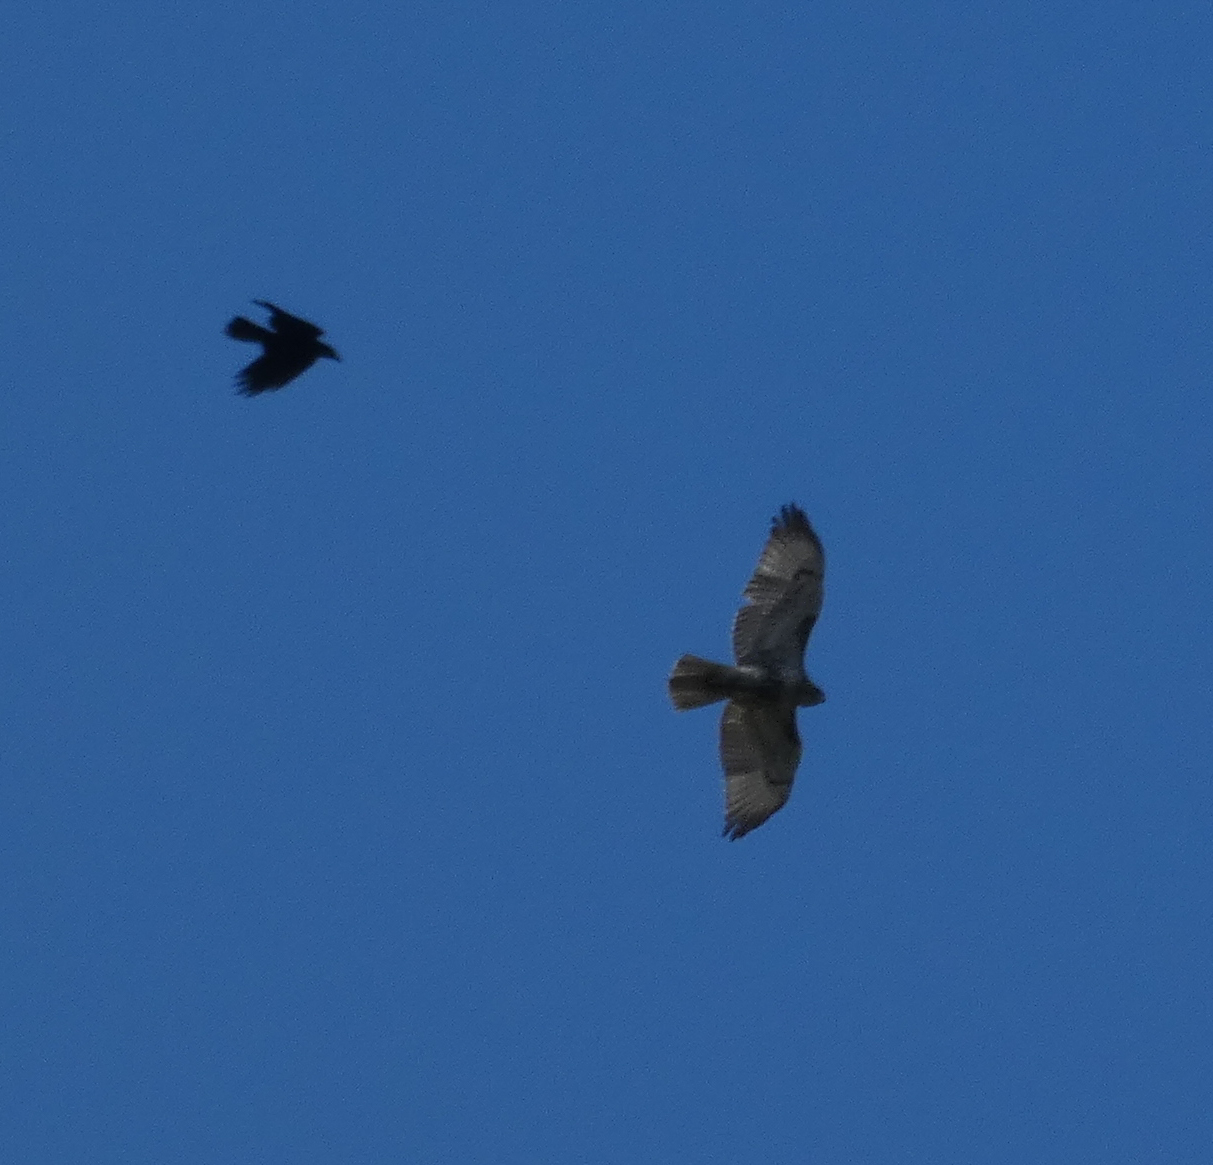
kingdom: Animalia
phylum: Chordata
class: Aves
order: Accipitriformes
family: Accipitridae
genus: Buteo
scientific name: Buteo jamaicensis
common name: Red-tailed hawk
